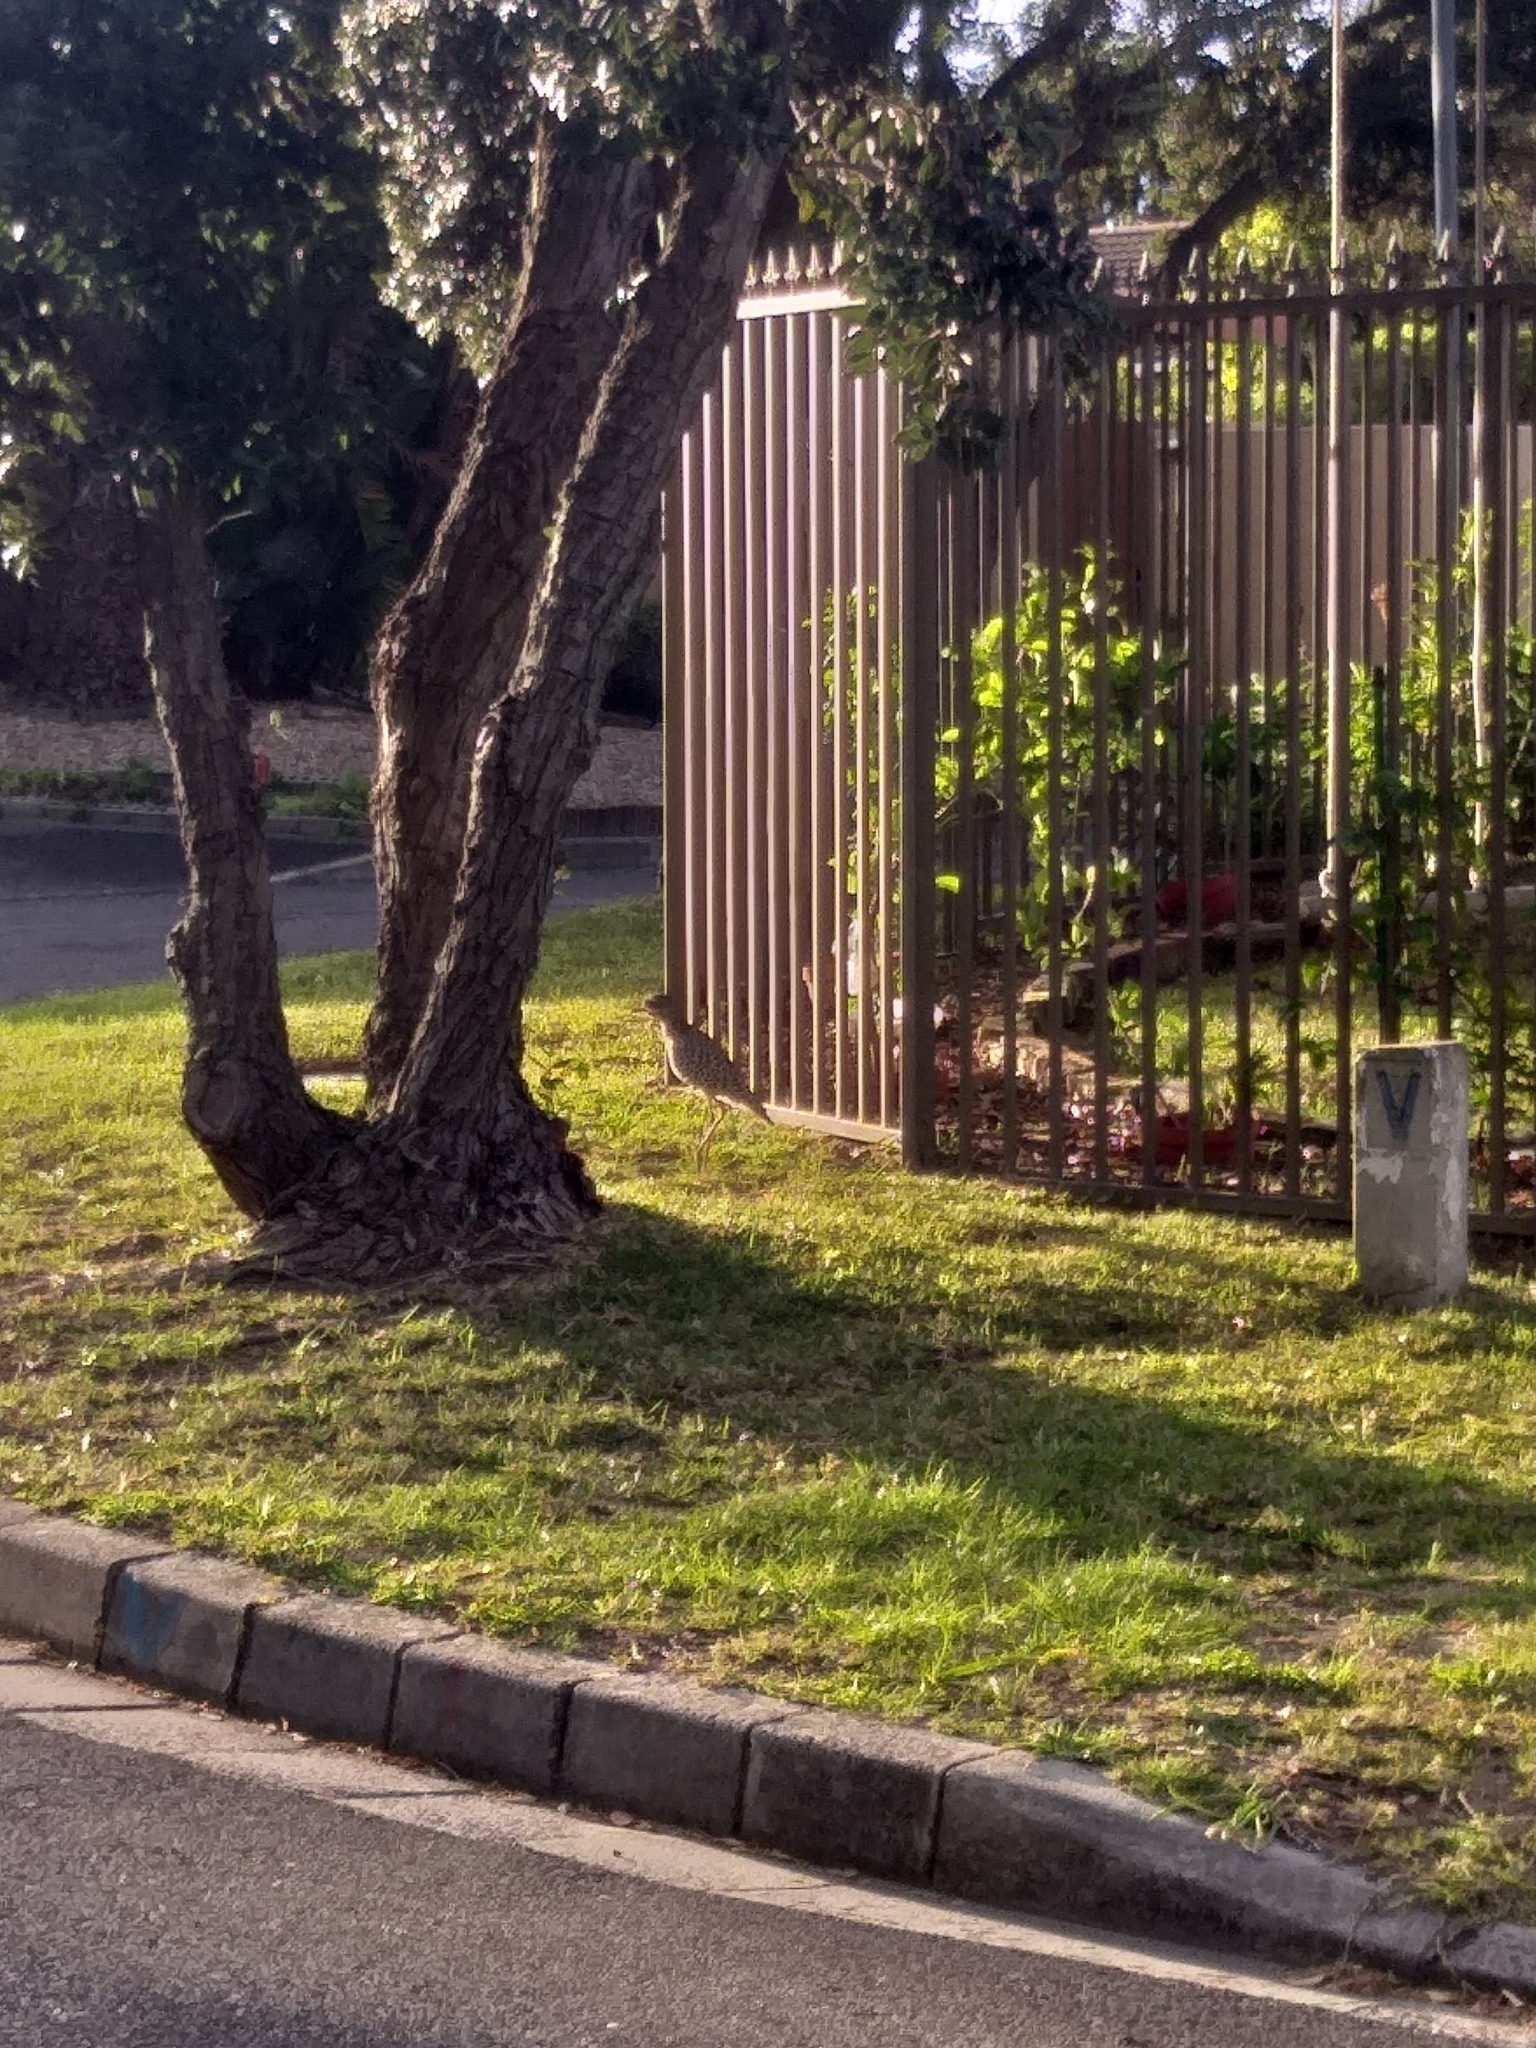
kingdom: Animalia
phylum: Chordata
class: Aves
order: Charadriiformes
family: Burhinidae
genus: Burhinus
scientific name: Burhinus capensis
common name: Spotted thick-knee
